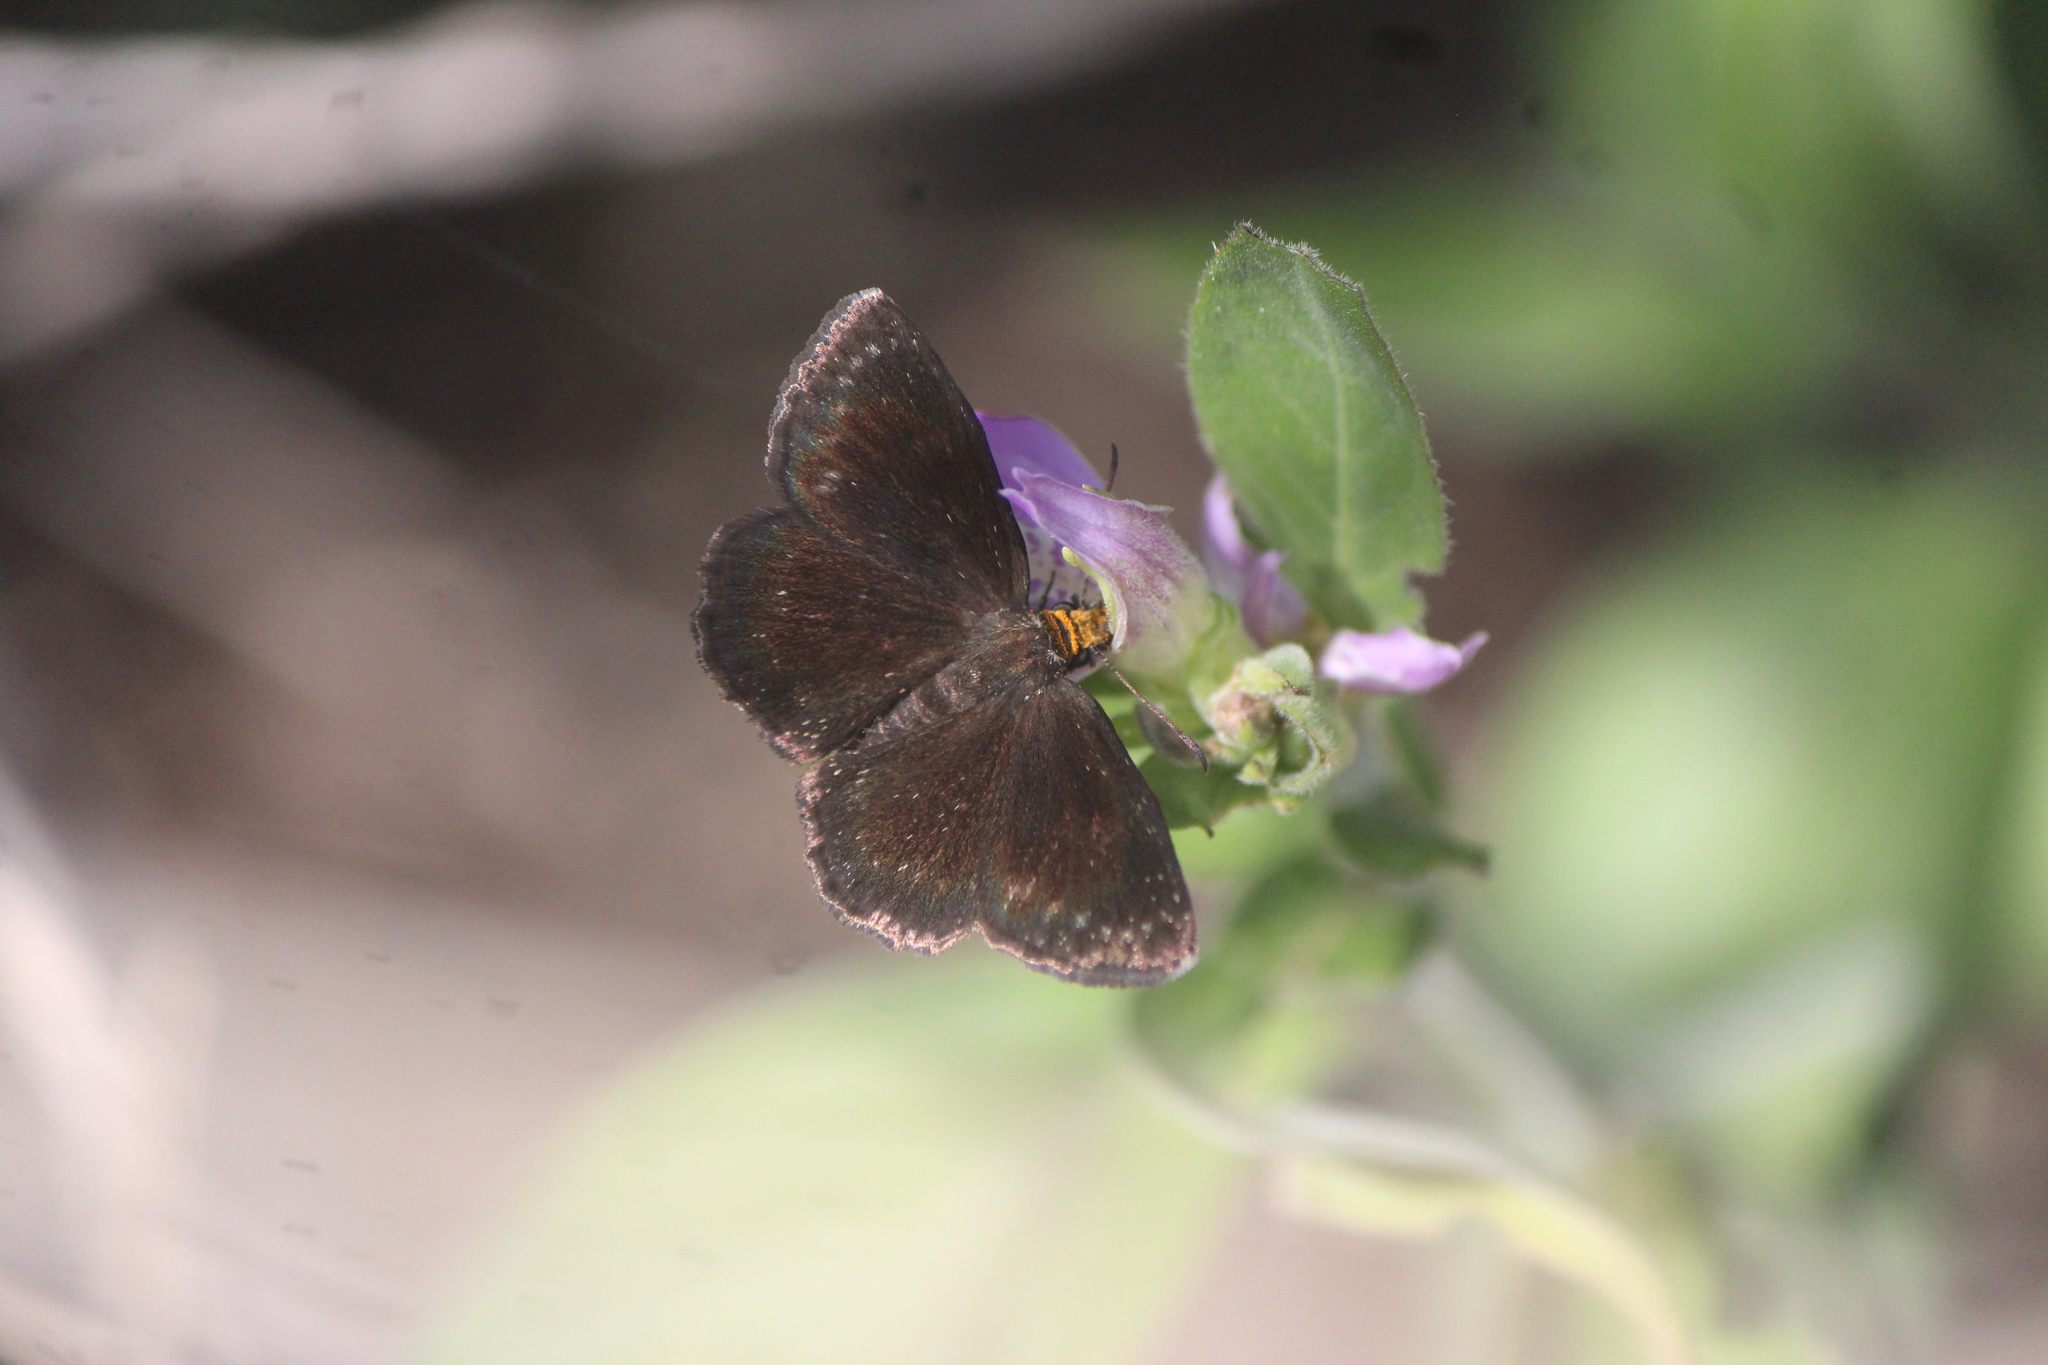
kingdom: Animalia
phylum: Arthropoda
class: Insecta
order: Lepidoptera
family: Hesperiidae
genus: Staphylus
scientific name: Staphylus ceos
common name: Golden-headed scallopwing
